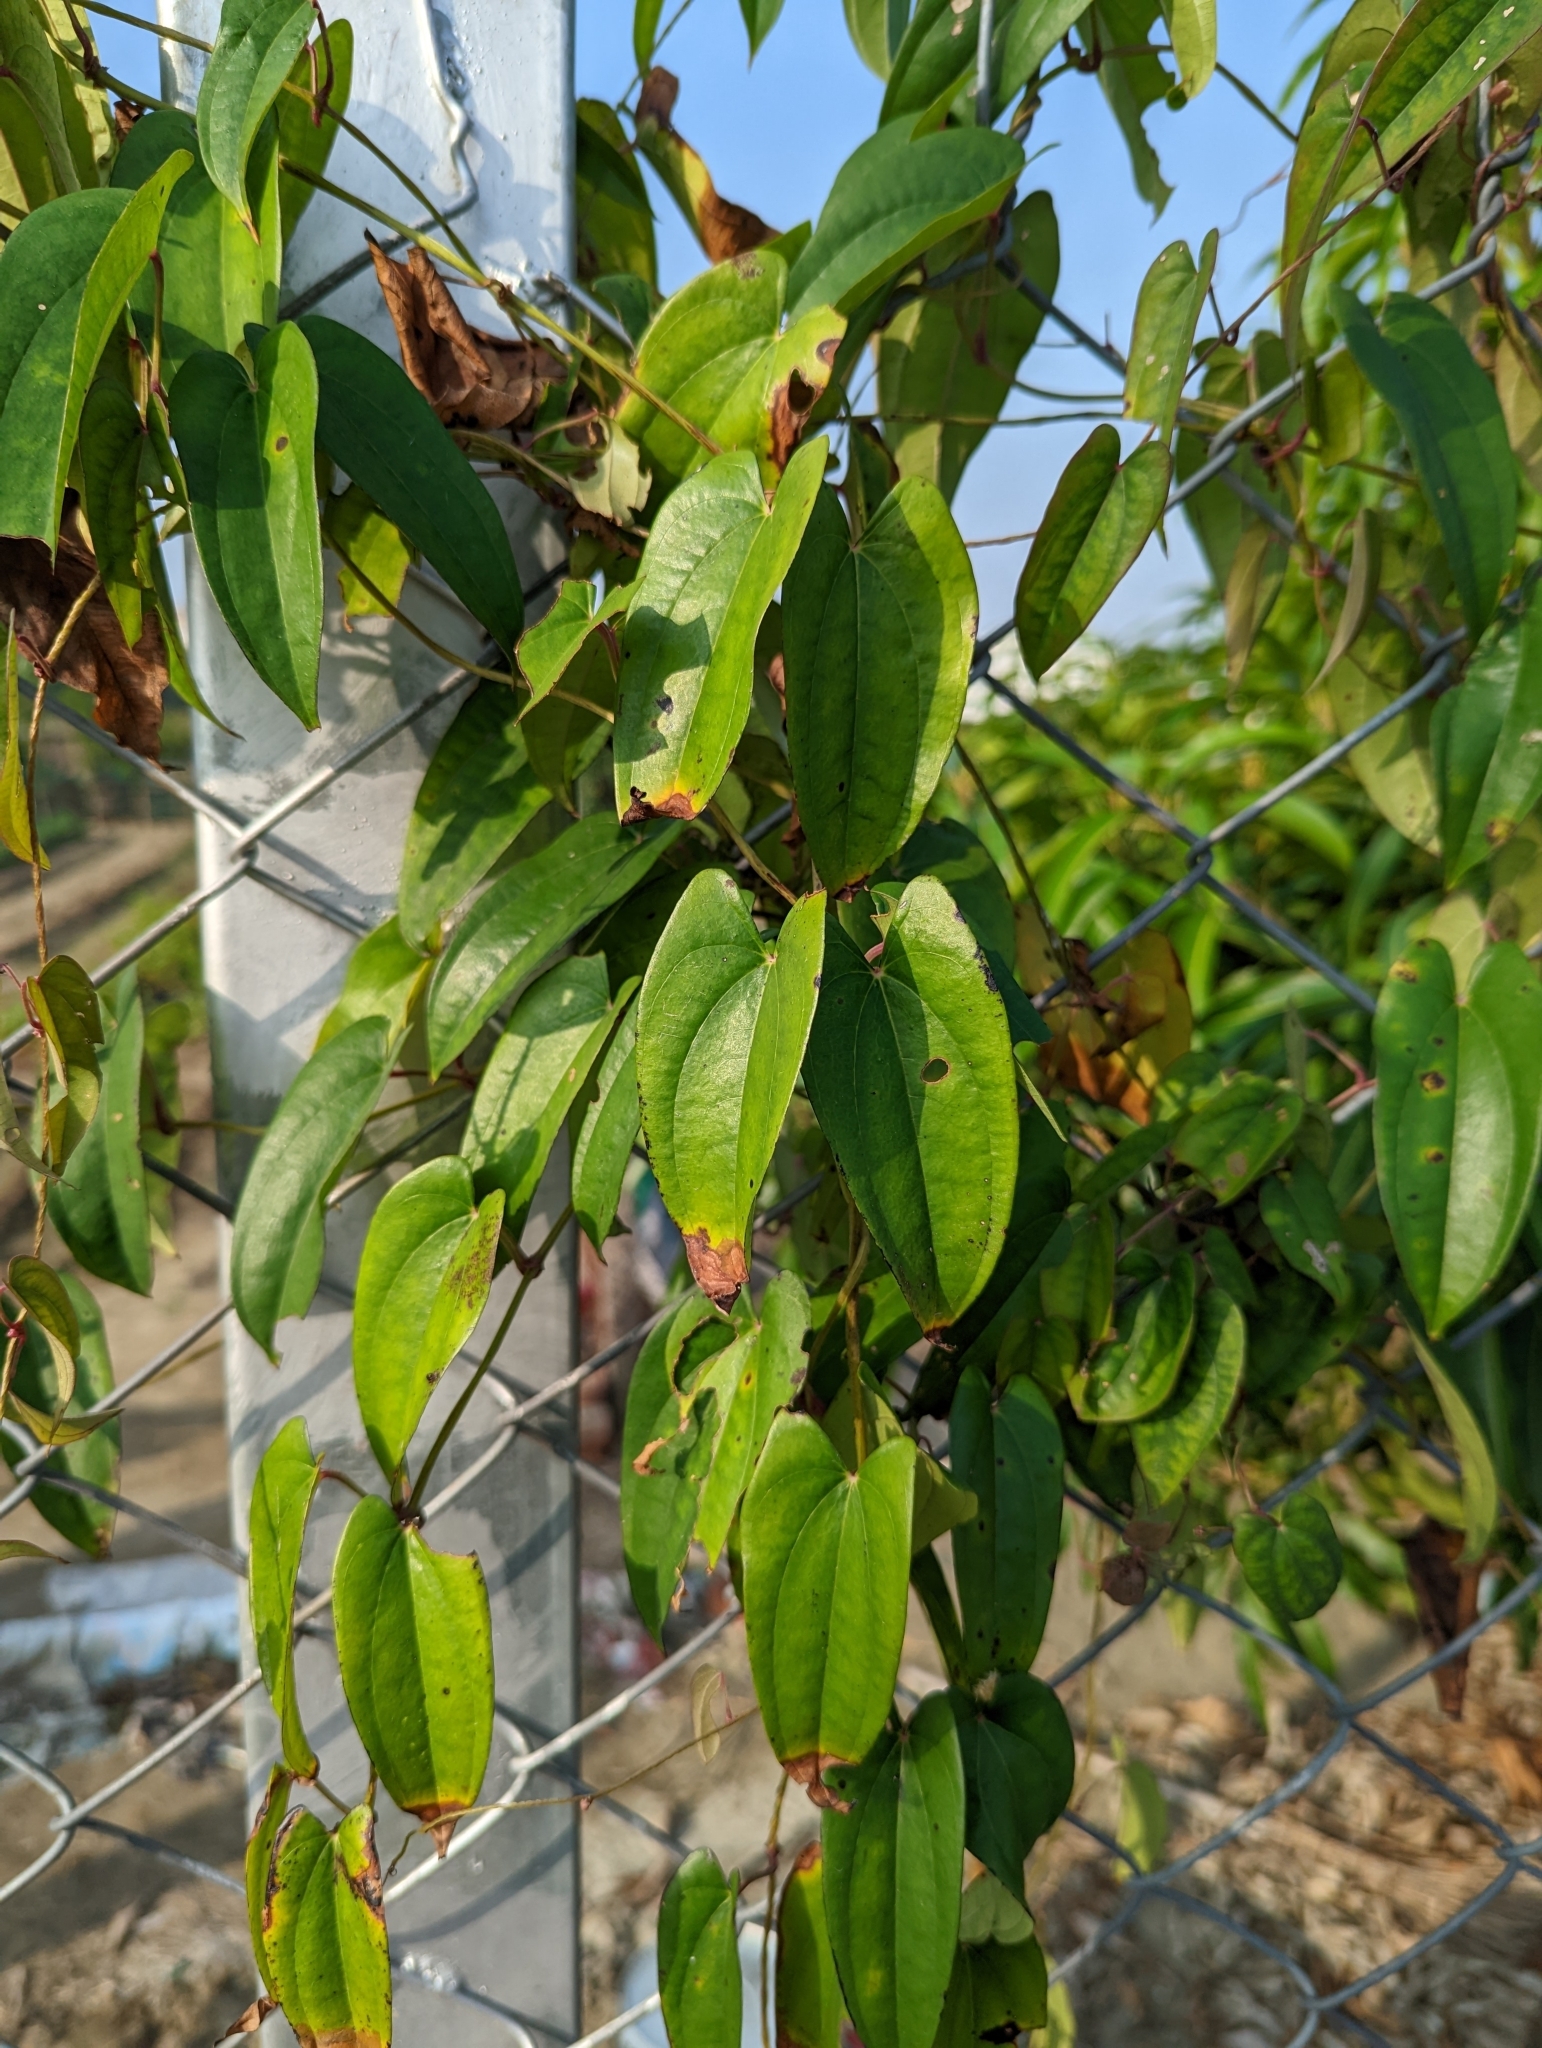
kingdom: Plantae
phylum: Tracheophyta
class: Liliopsida
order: Dioscoreales
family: Dioscoreaceae
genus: Dioscorea
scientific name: Dioscorea alata
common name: Water yam
